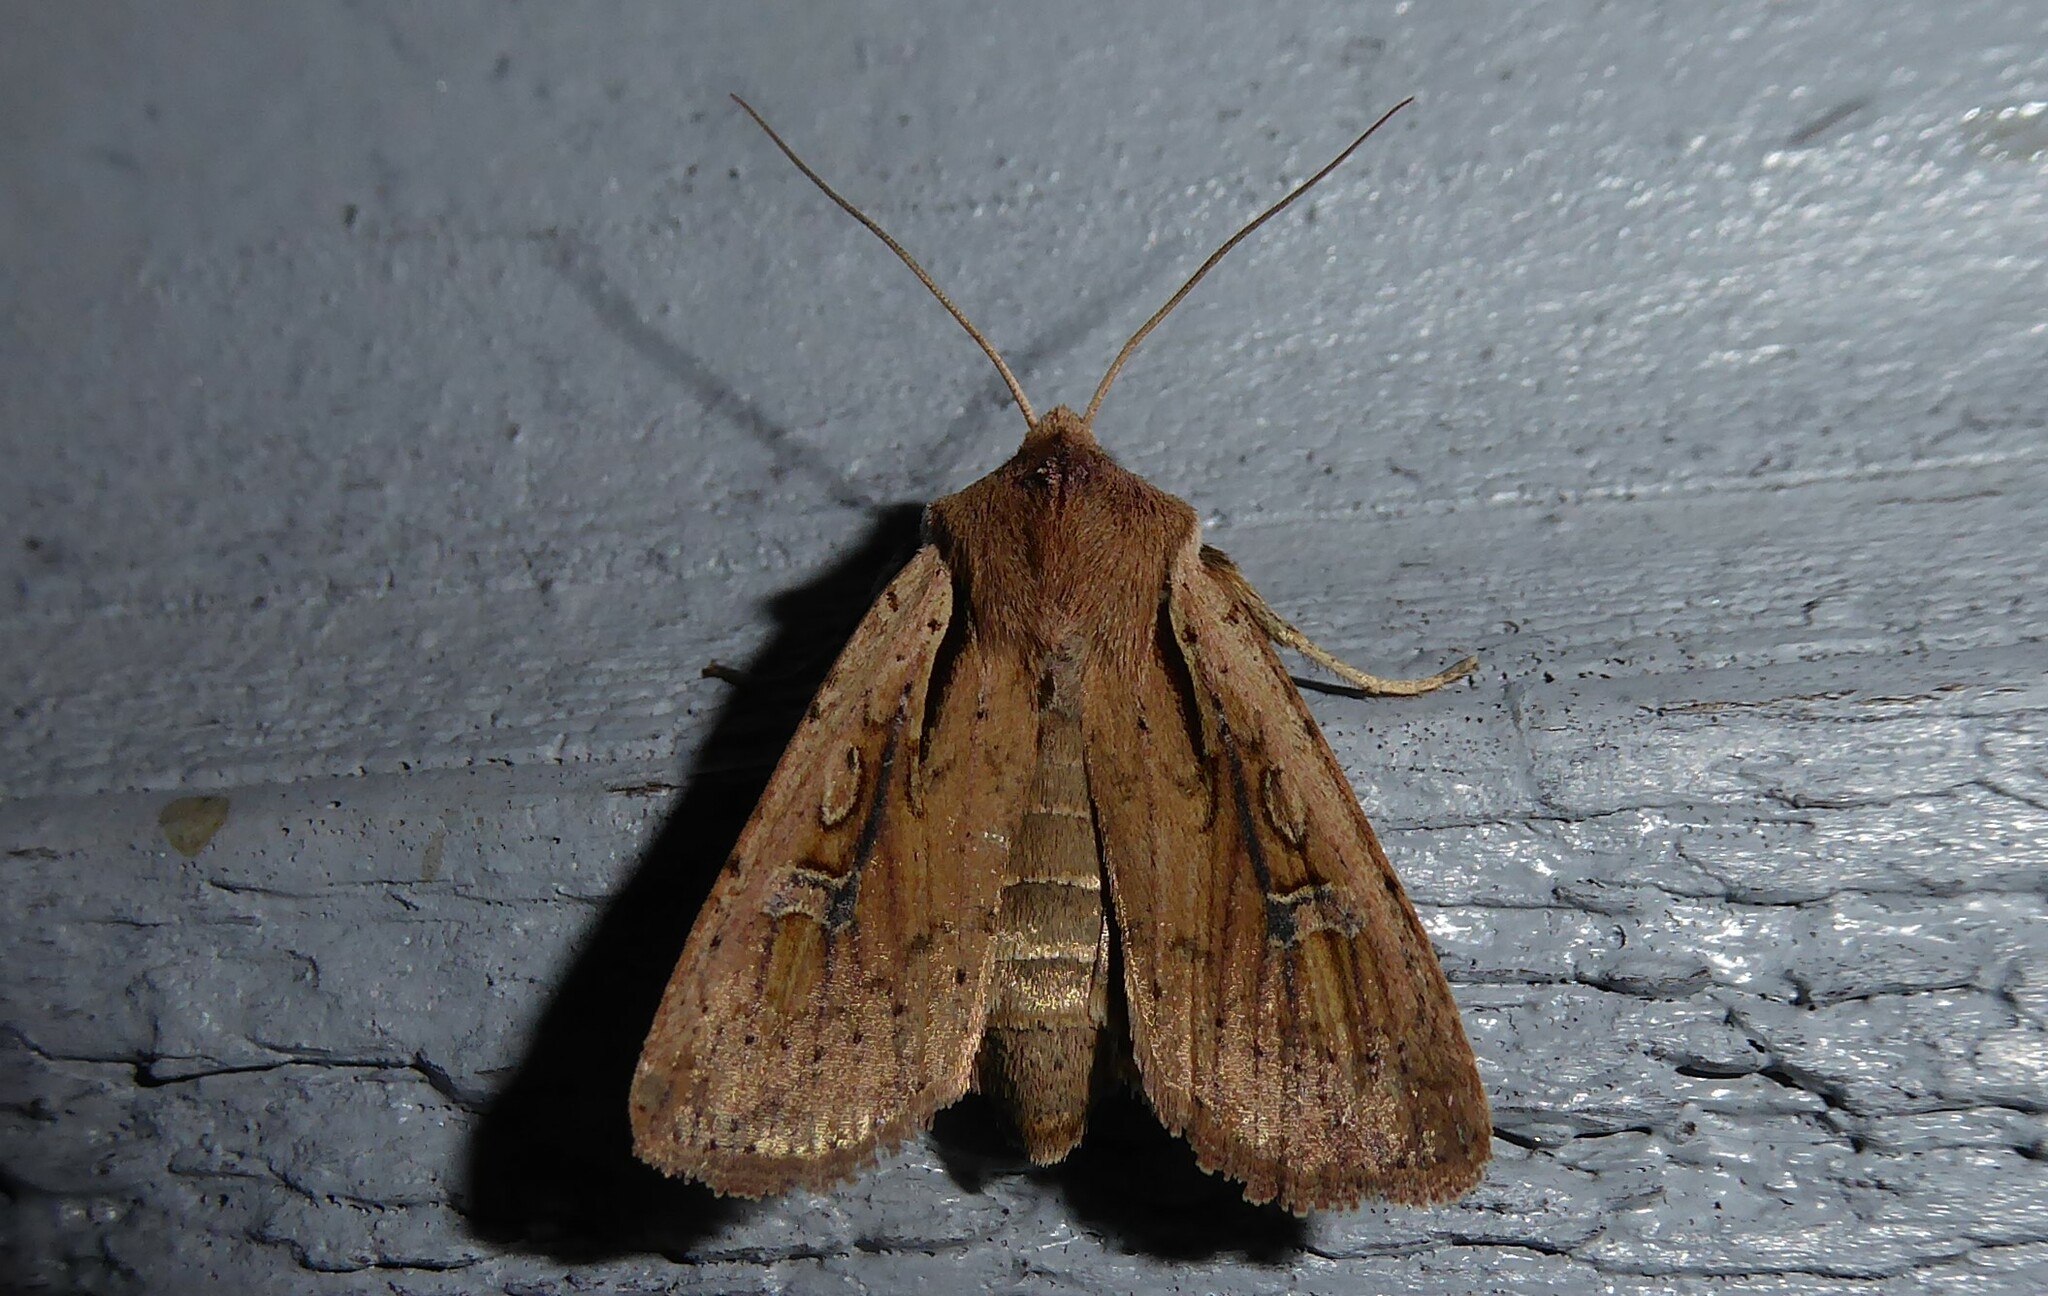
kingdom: Animalia
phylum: Arthropoda
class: Insecta
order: Lepidoptera
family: Noctuidae
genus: Ichneutica
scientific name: Ichneutica atristriga
